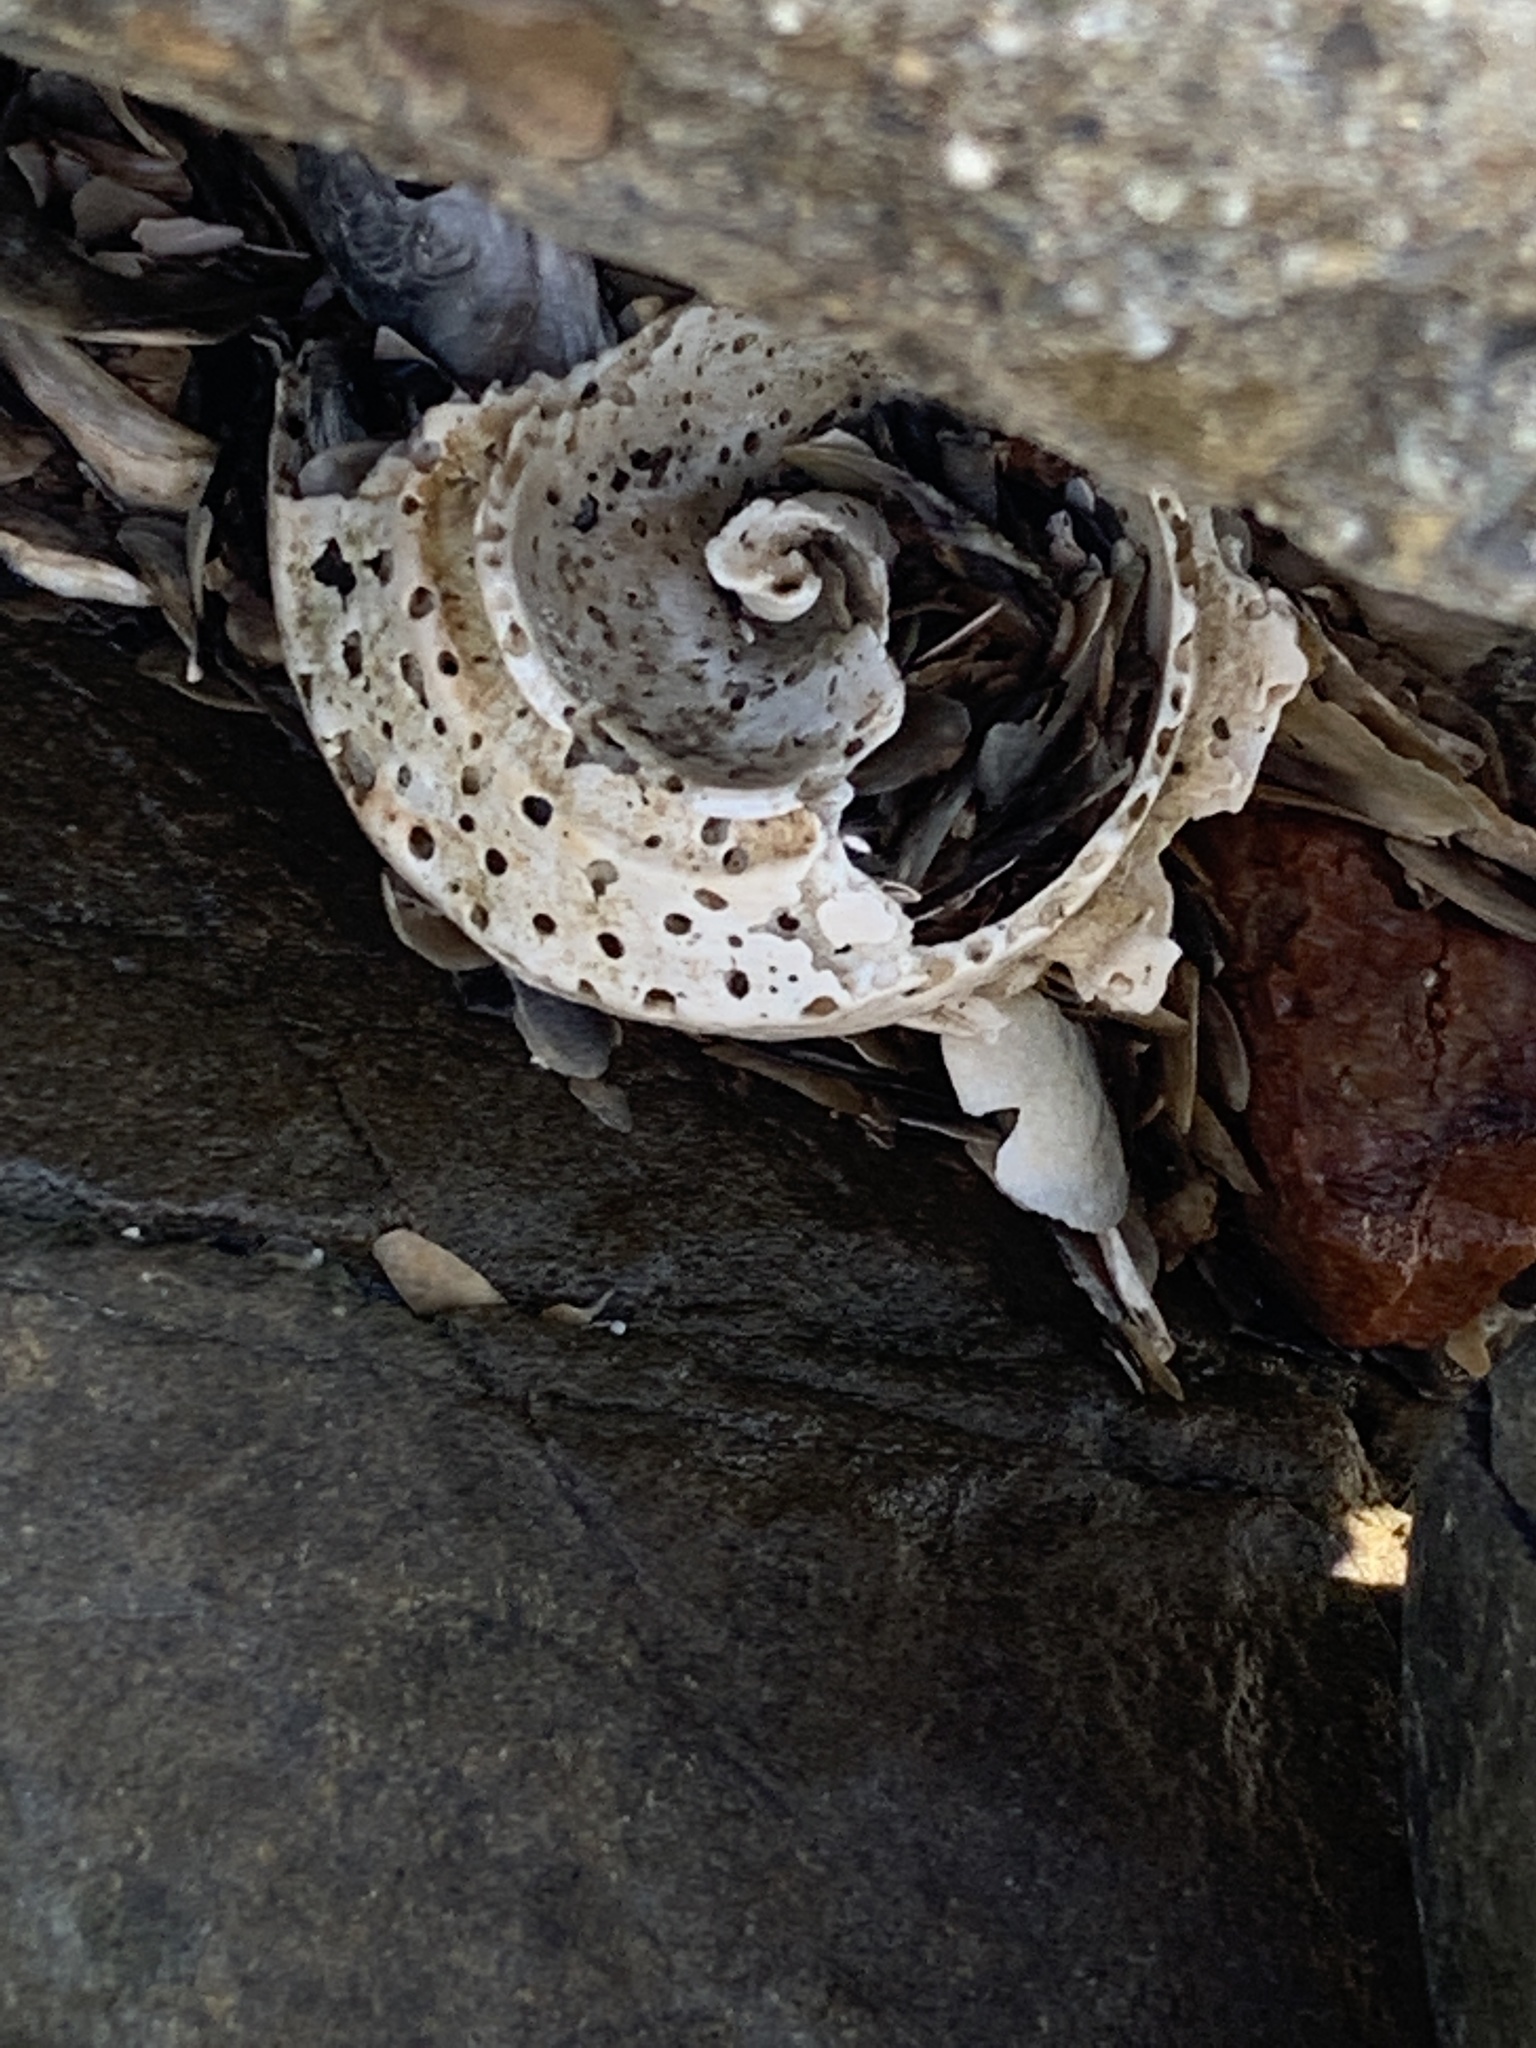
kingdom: Animalia
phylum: Mollusca
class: Gastropoda
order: Neogastropoda
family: Busyconidae
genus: Busycotypus
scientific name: Busycotypus canaliculatus
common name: Channeled whelk
